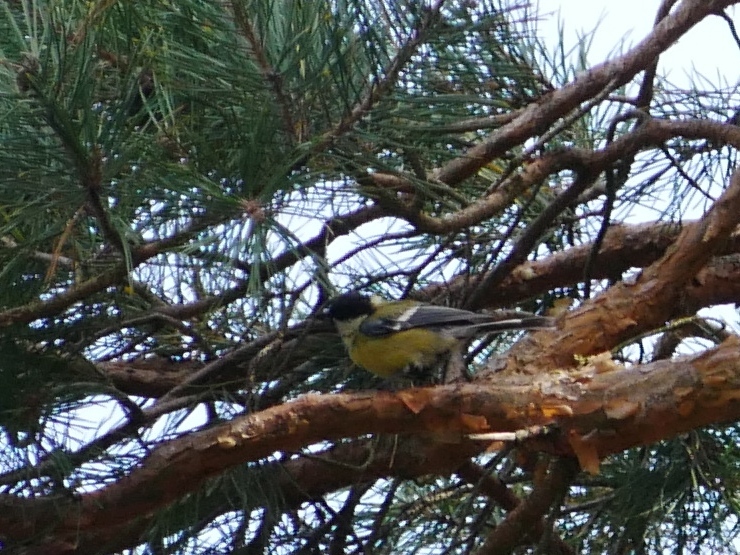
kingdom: Animalia
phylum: Chordata
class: Aves
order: Passeriformes
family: Paridae
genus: Parus
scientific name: Parus major
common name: Great tit
